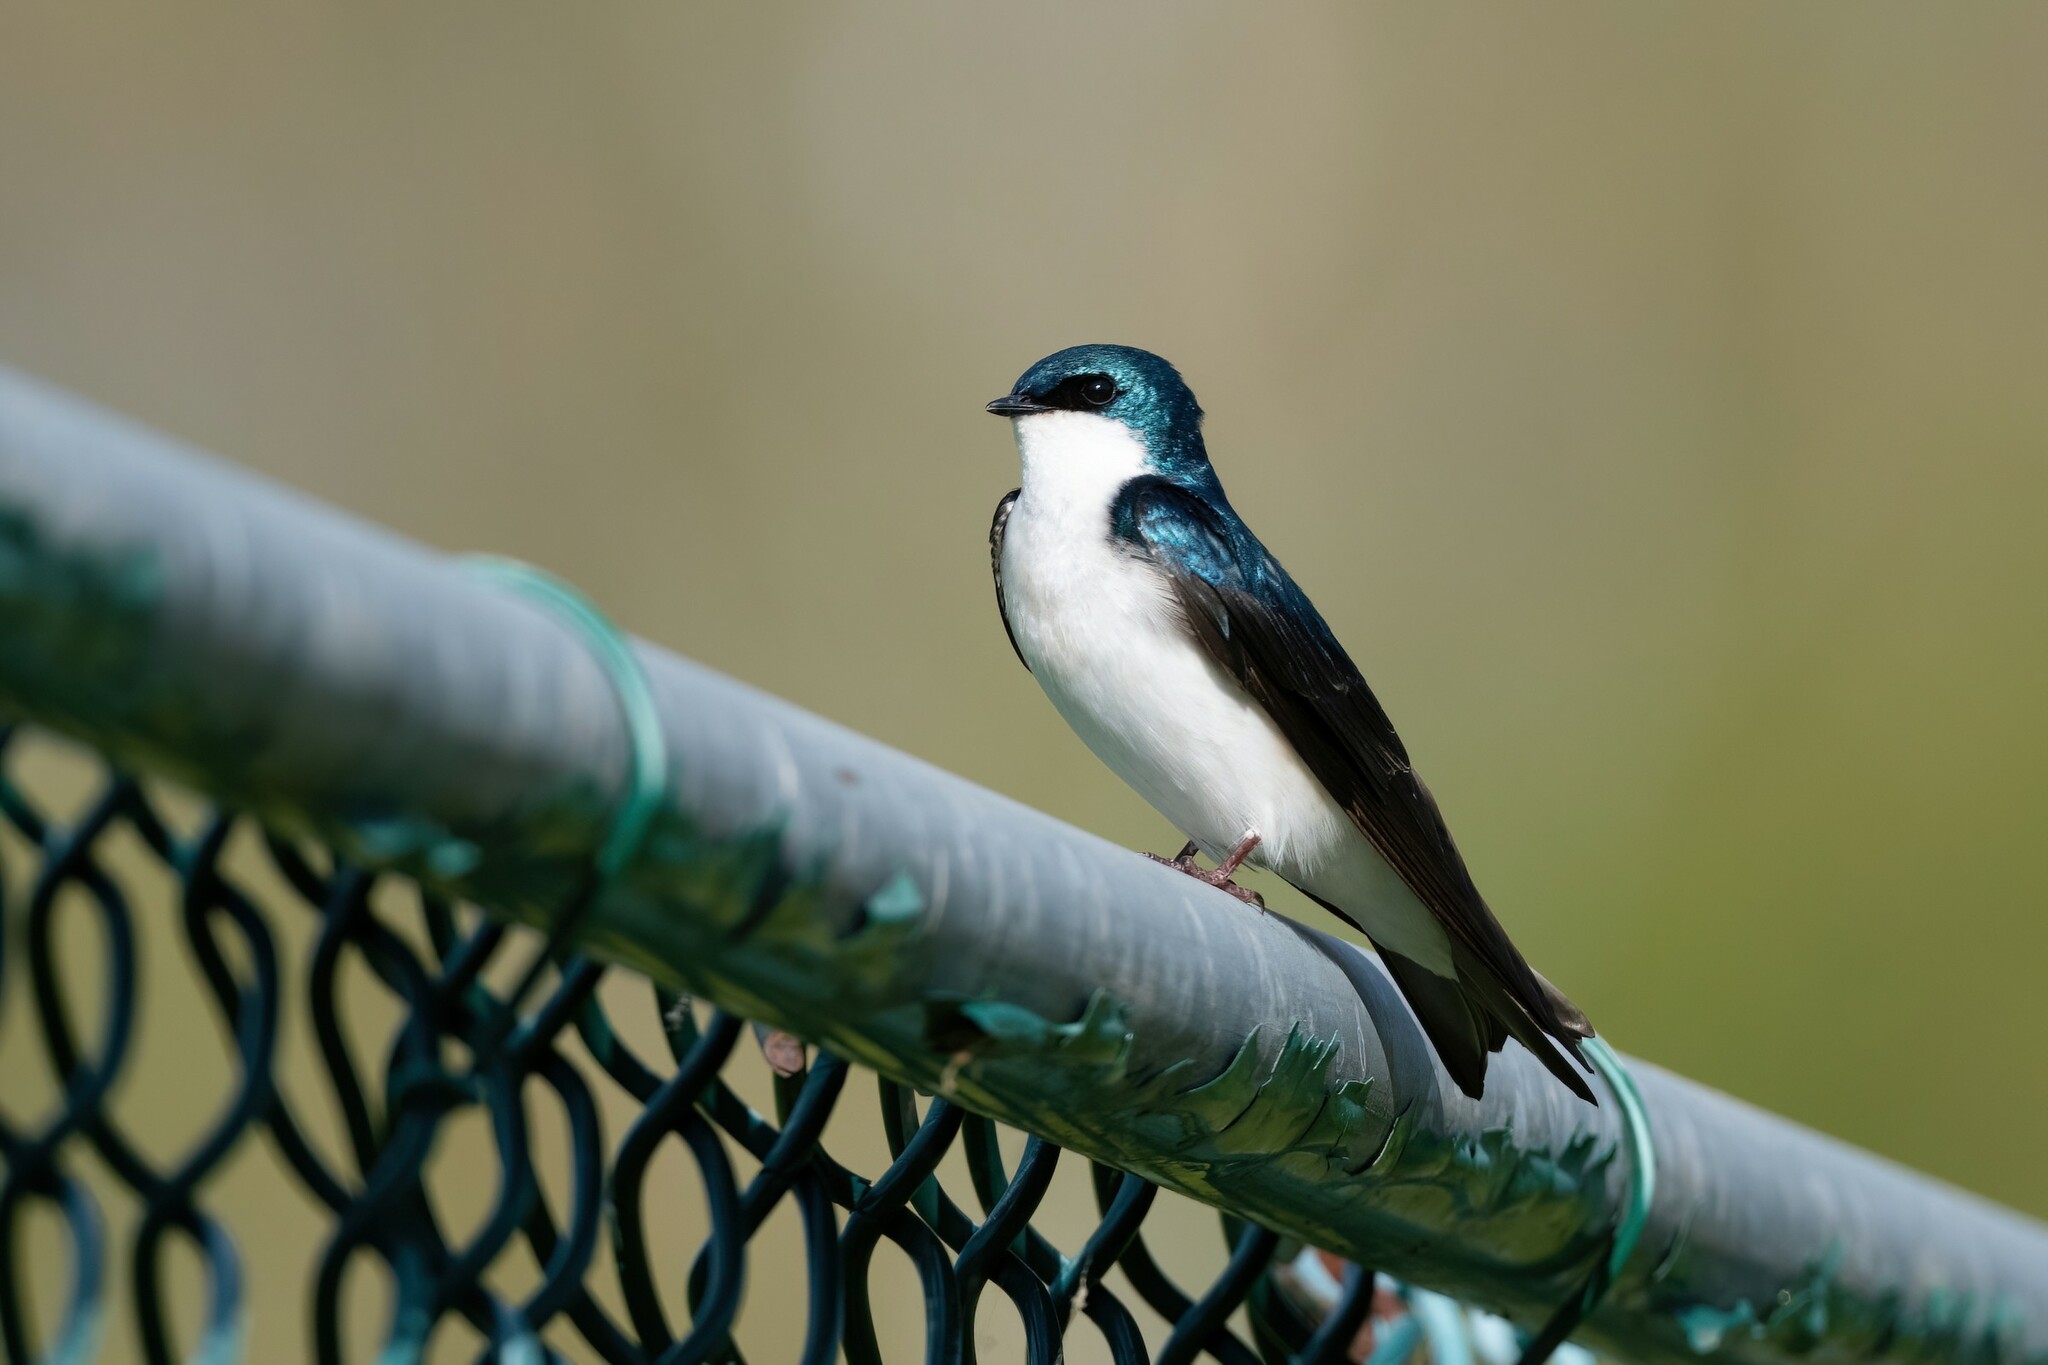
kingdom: Animalia
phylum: Chordata
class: Aves
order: Passeriformes
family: Hirundinidae
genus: Tachycineta
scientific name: Tachycineta bicolor
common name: Tree swallow
